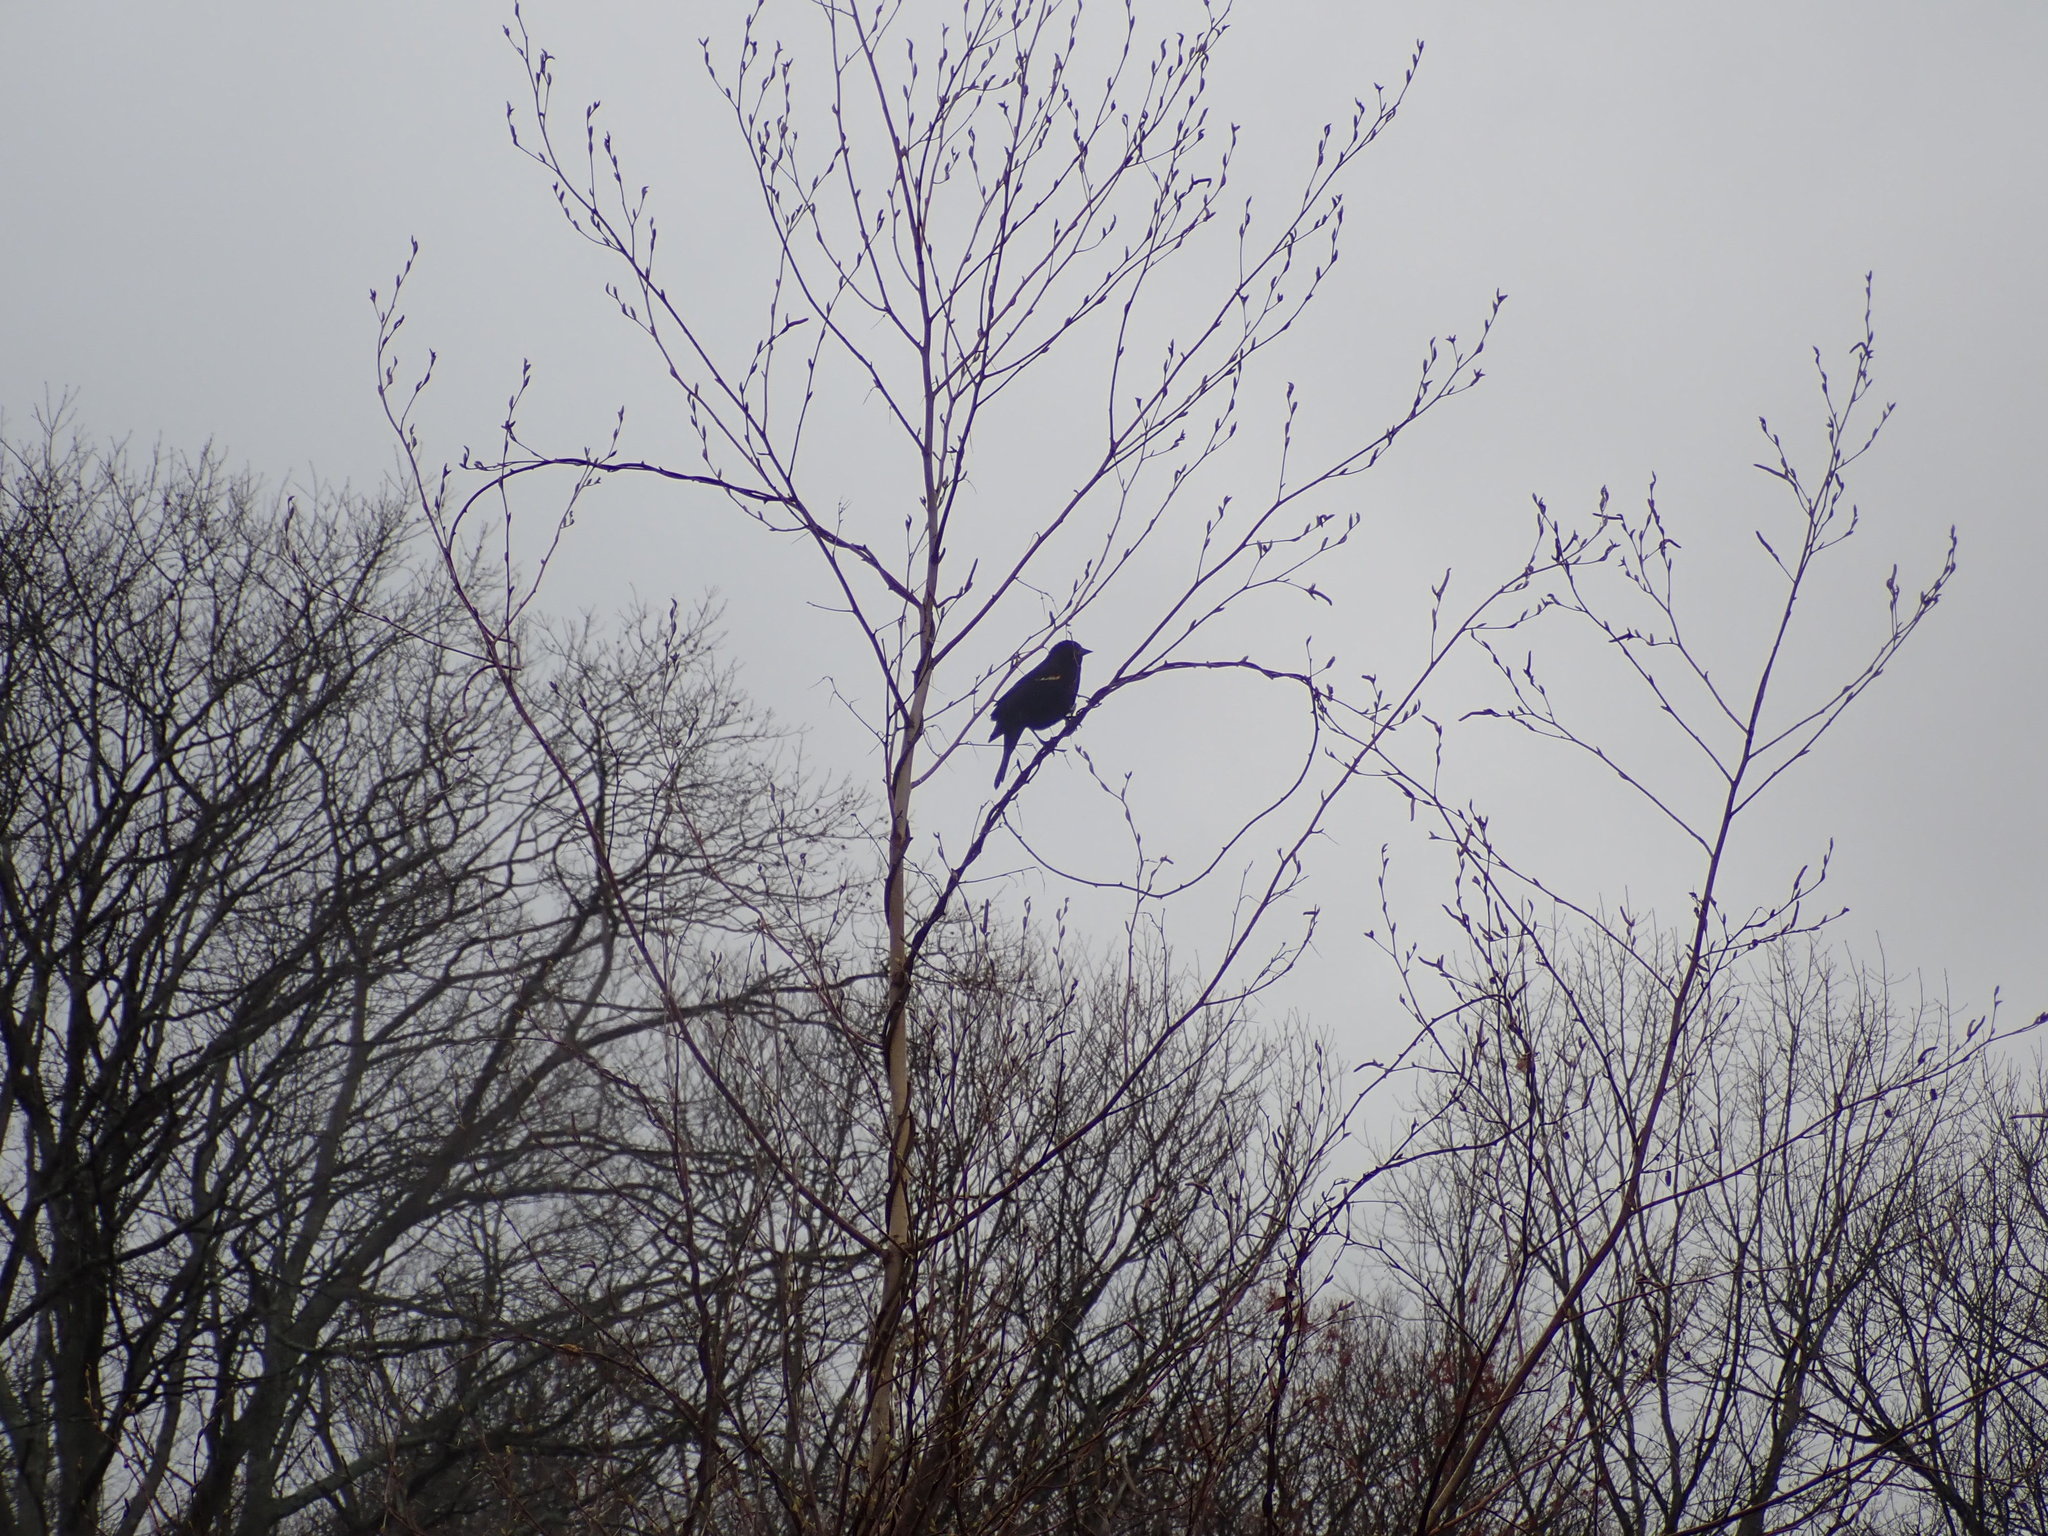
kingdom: Animalia
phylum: Chordata
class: Aves
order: Passeriformes
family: Icteridae
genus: Agelaius
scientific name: Agelaius phoeniceus
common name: Red-winged blackbird
